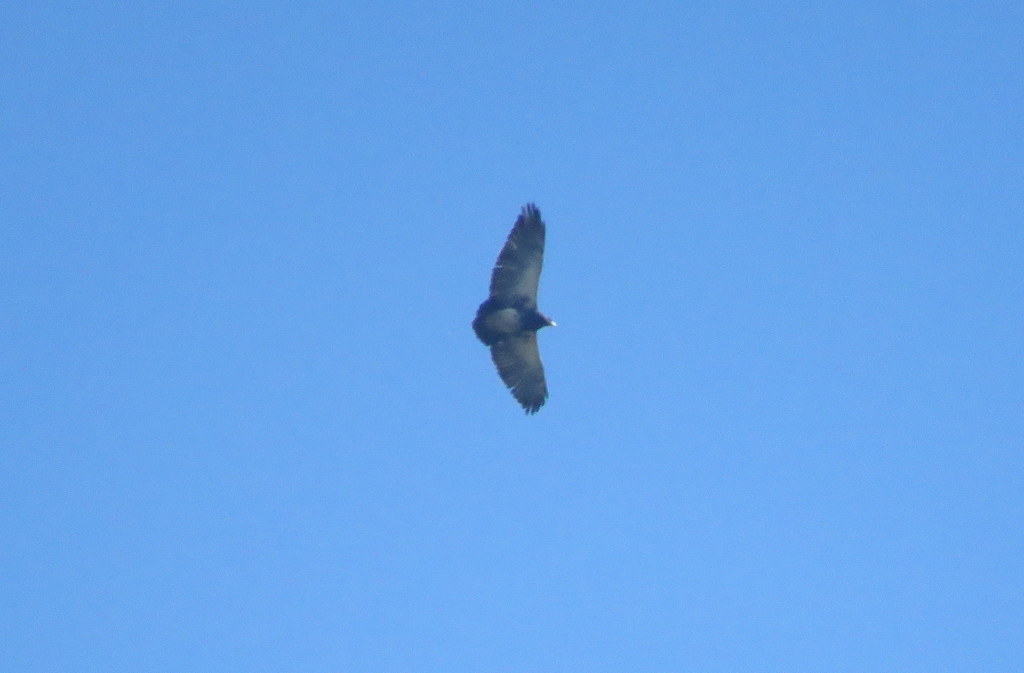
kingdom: Animalia
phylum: Chordata
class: Aves
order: Accipitriformes
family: Accipitridae
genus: Geranoaetus
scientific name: Geranoaetus melanoleucus
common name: Black-chested buzzard-eagle
